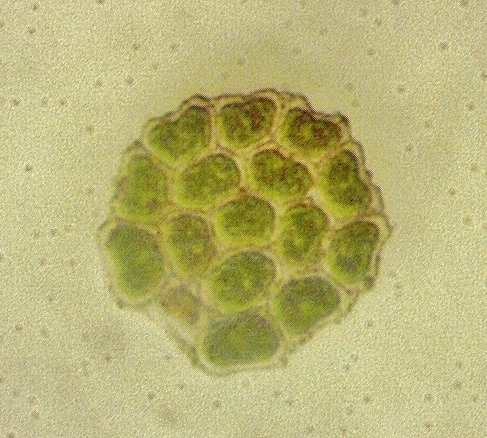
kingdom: Plantae
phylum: Chlorophyta
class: Chlorophyceae
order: Sphaeropleales
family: Hydrodictyaceae
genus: Pseudopediastrum
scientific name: Pseudopediastrum integrum
